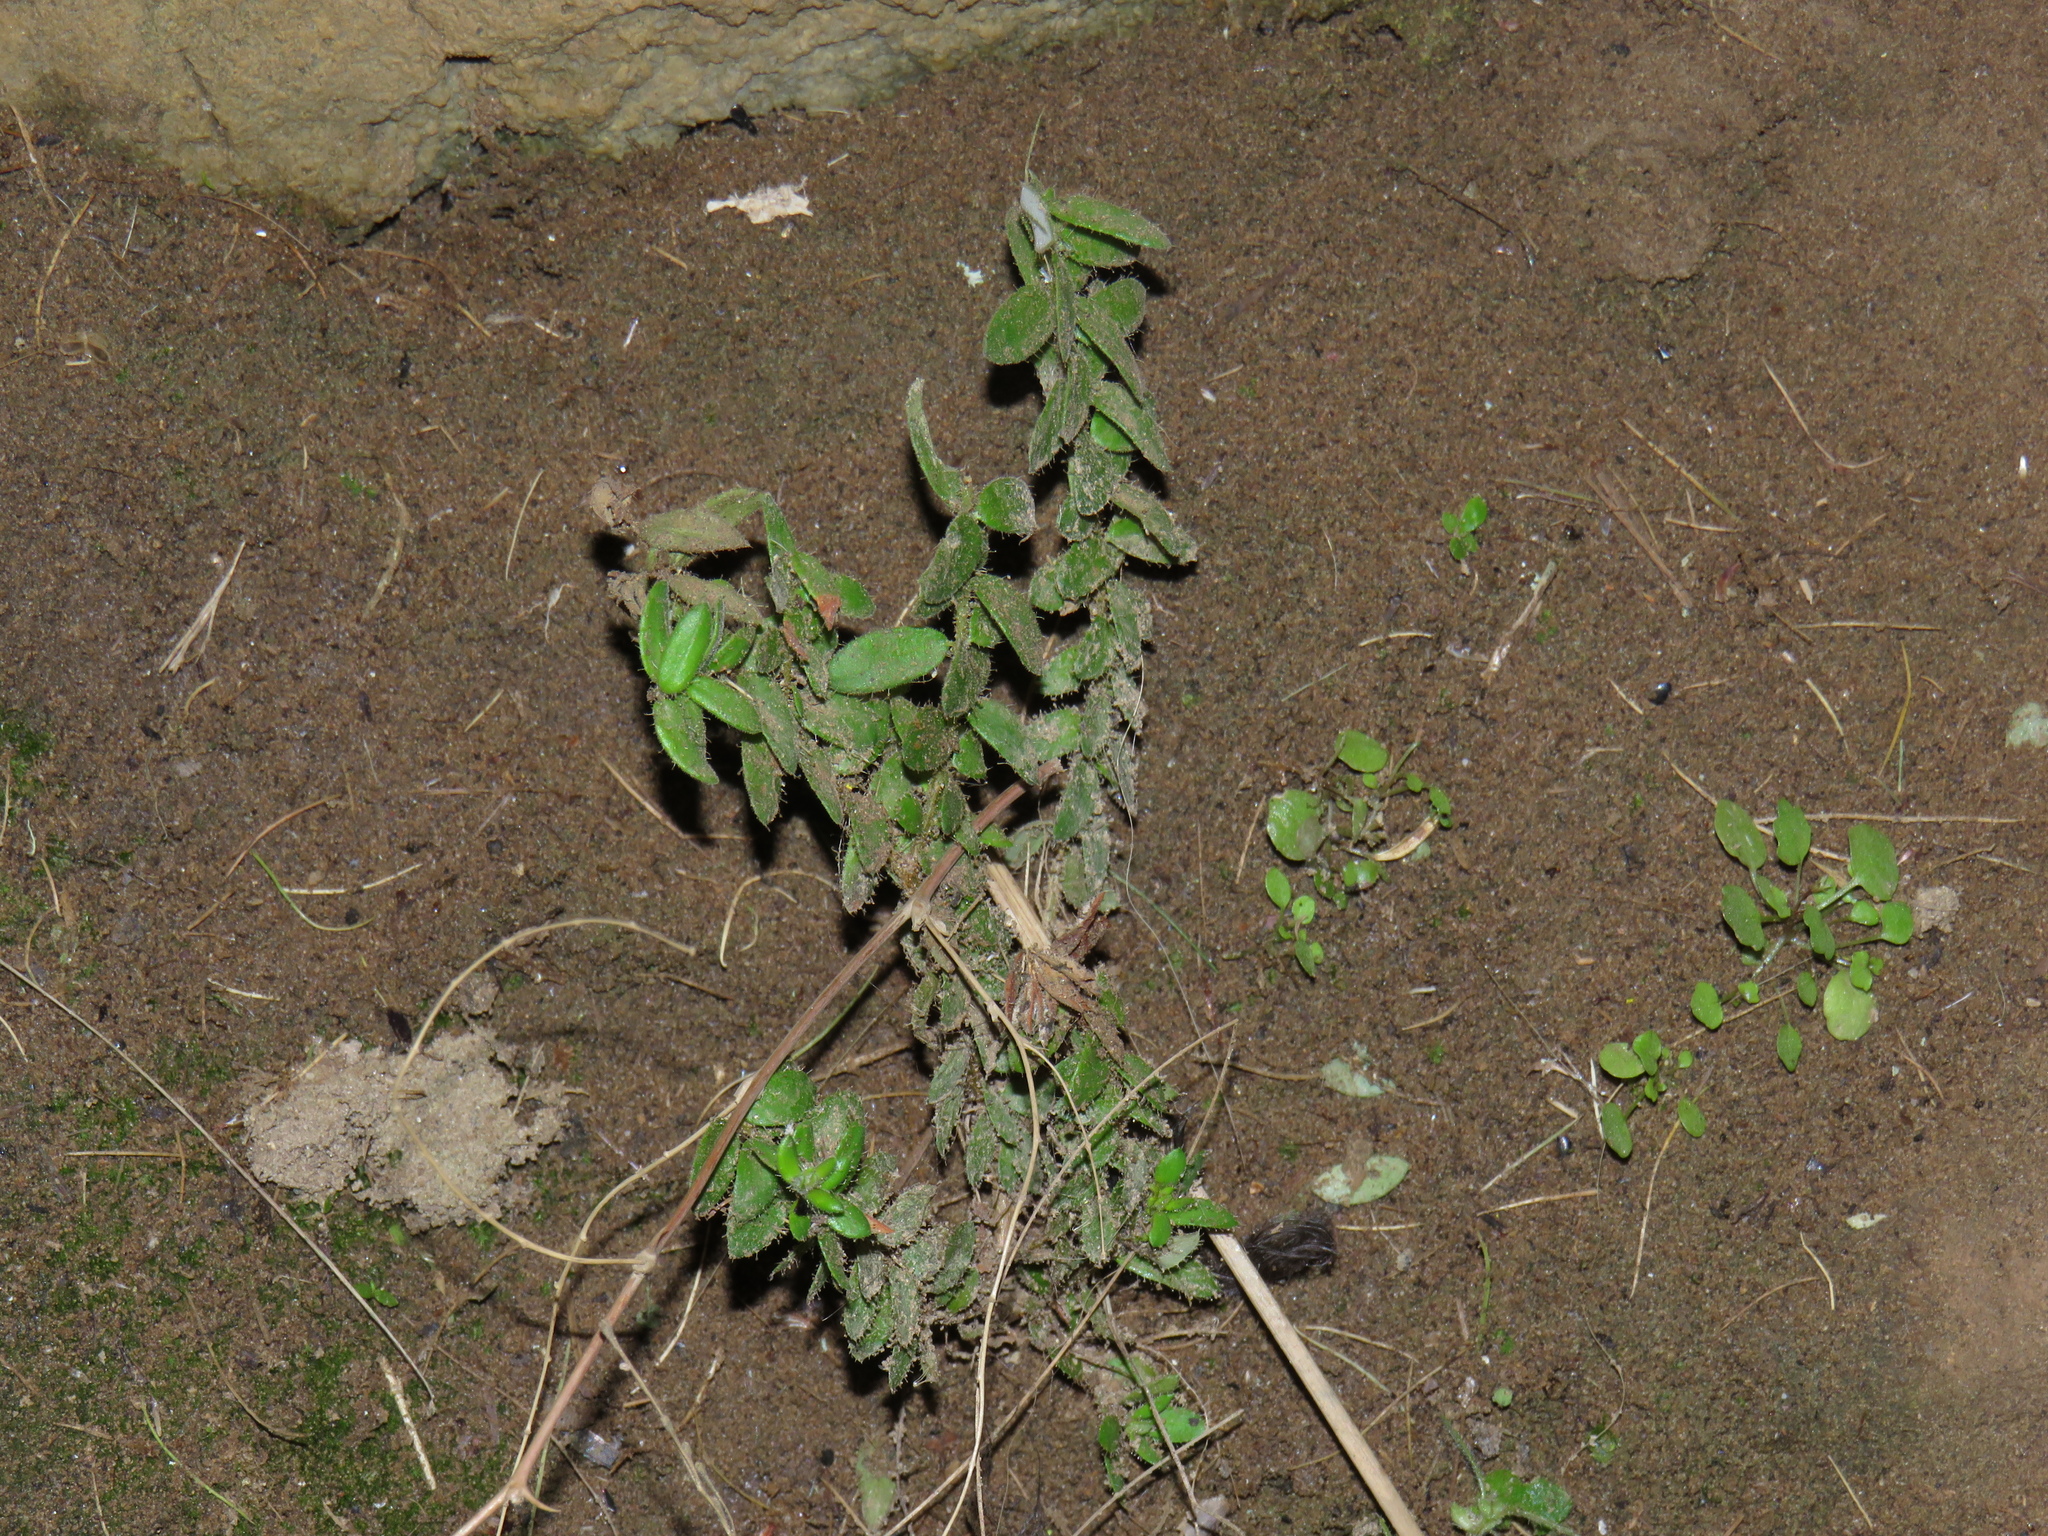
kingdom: Plantae
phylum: Tracheophyta
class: Magnoliopsida
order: Ericales
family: Ericaceae
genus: Erica
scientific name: Erica marifolia
